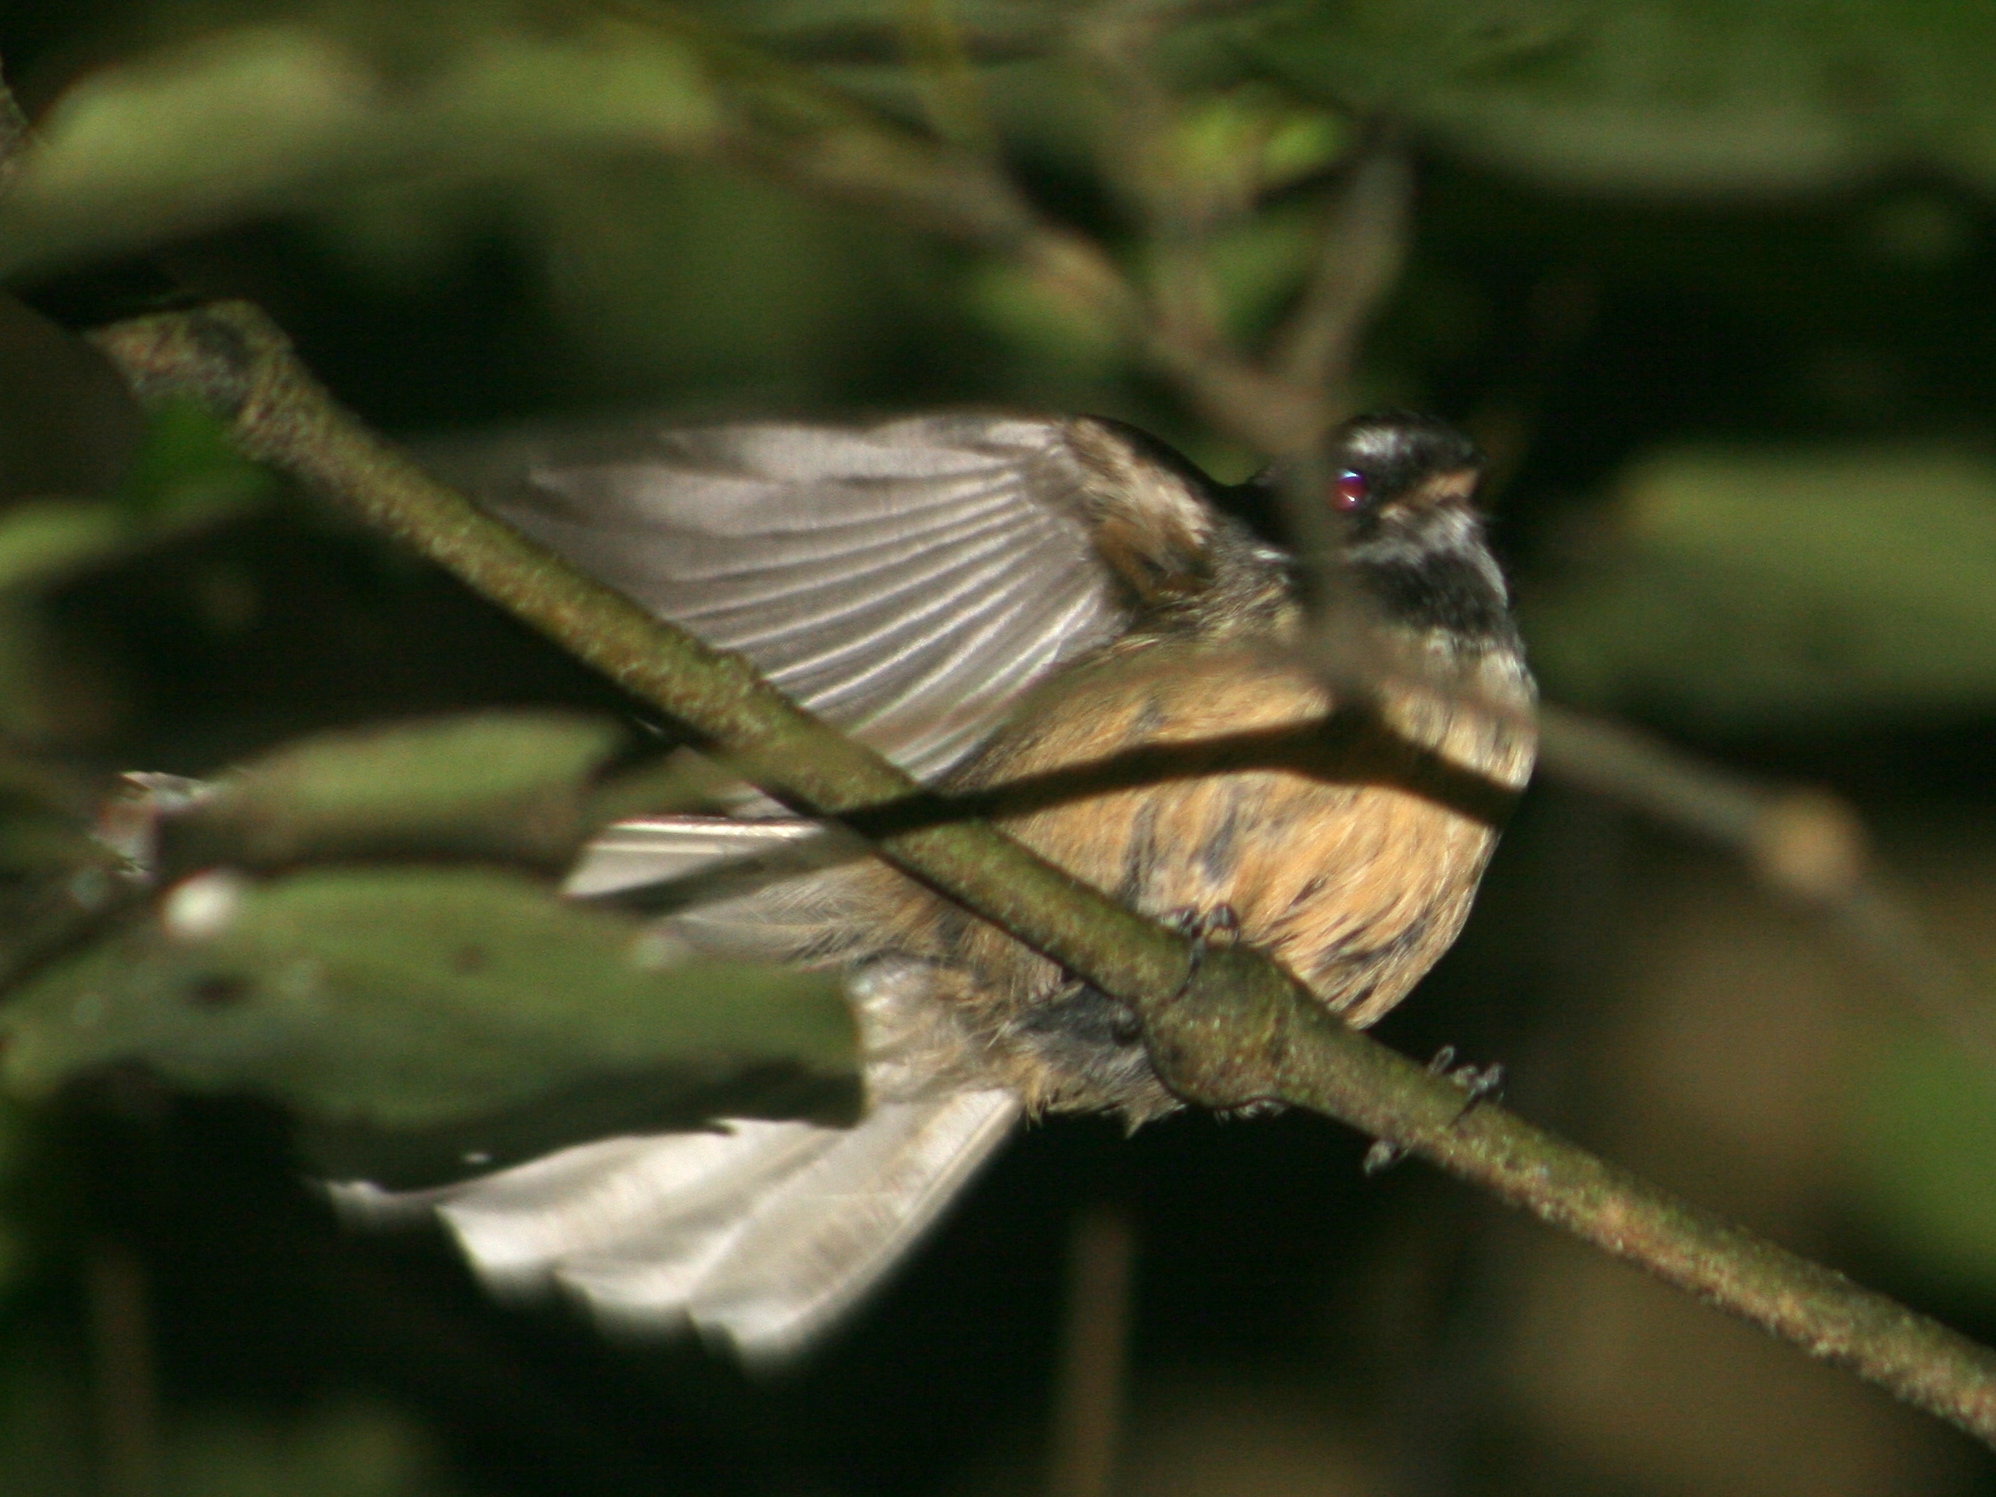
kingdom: Animalia
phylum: Chordata
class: Aves
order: Passeriformes
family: Rhipiduridae
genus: Rhipidura
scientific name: Rhipidura fuliginosa
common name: New zealand fantail
